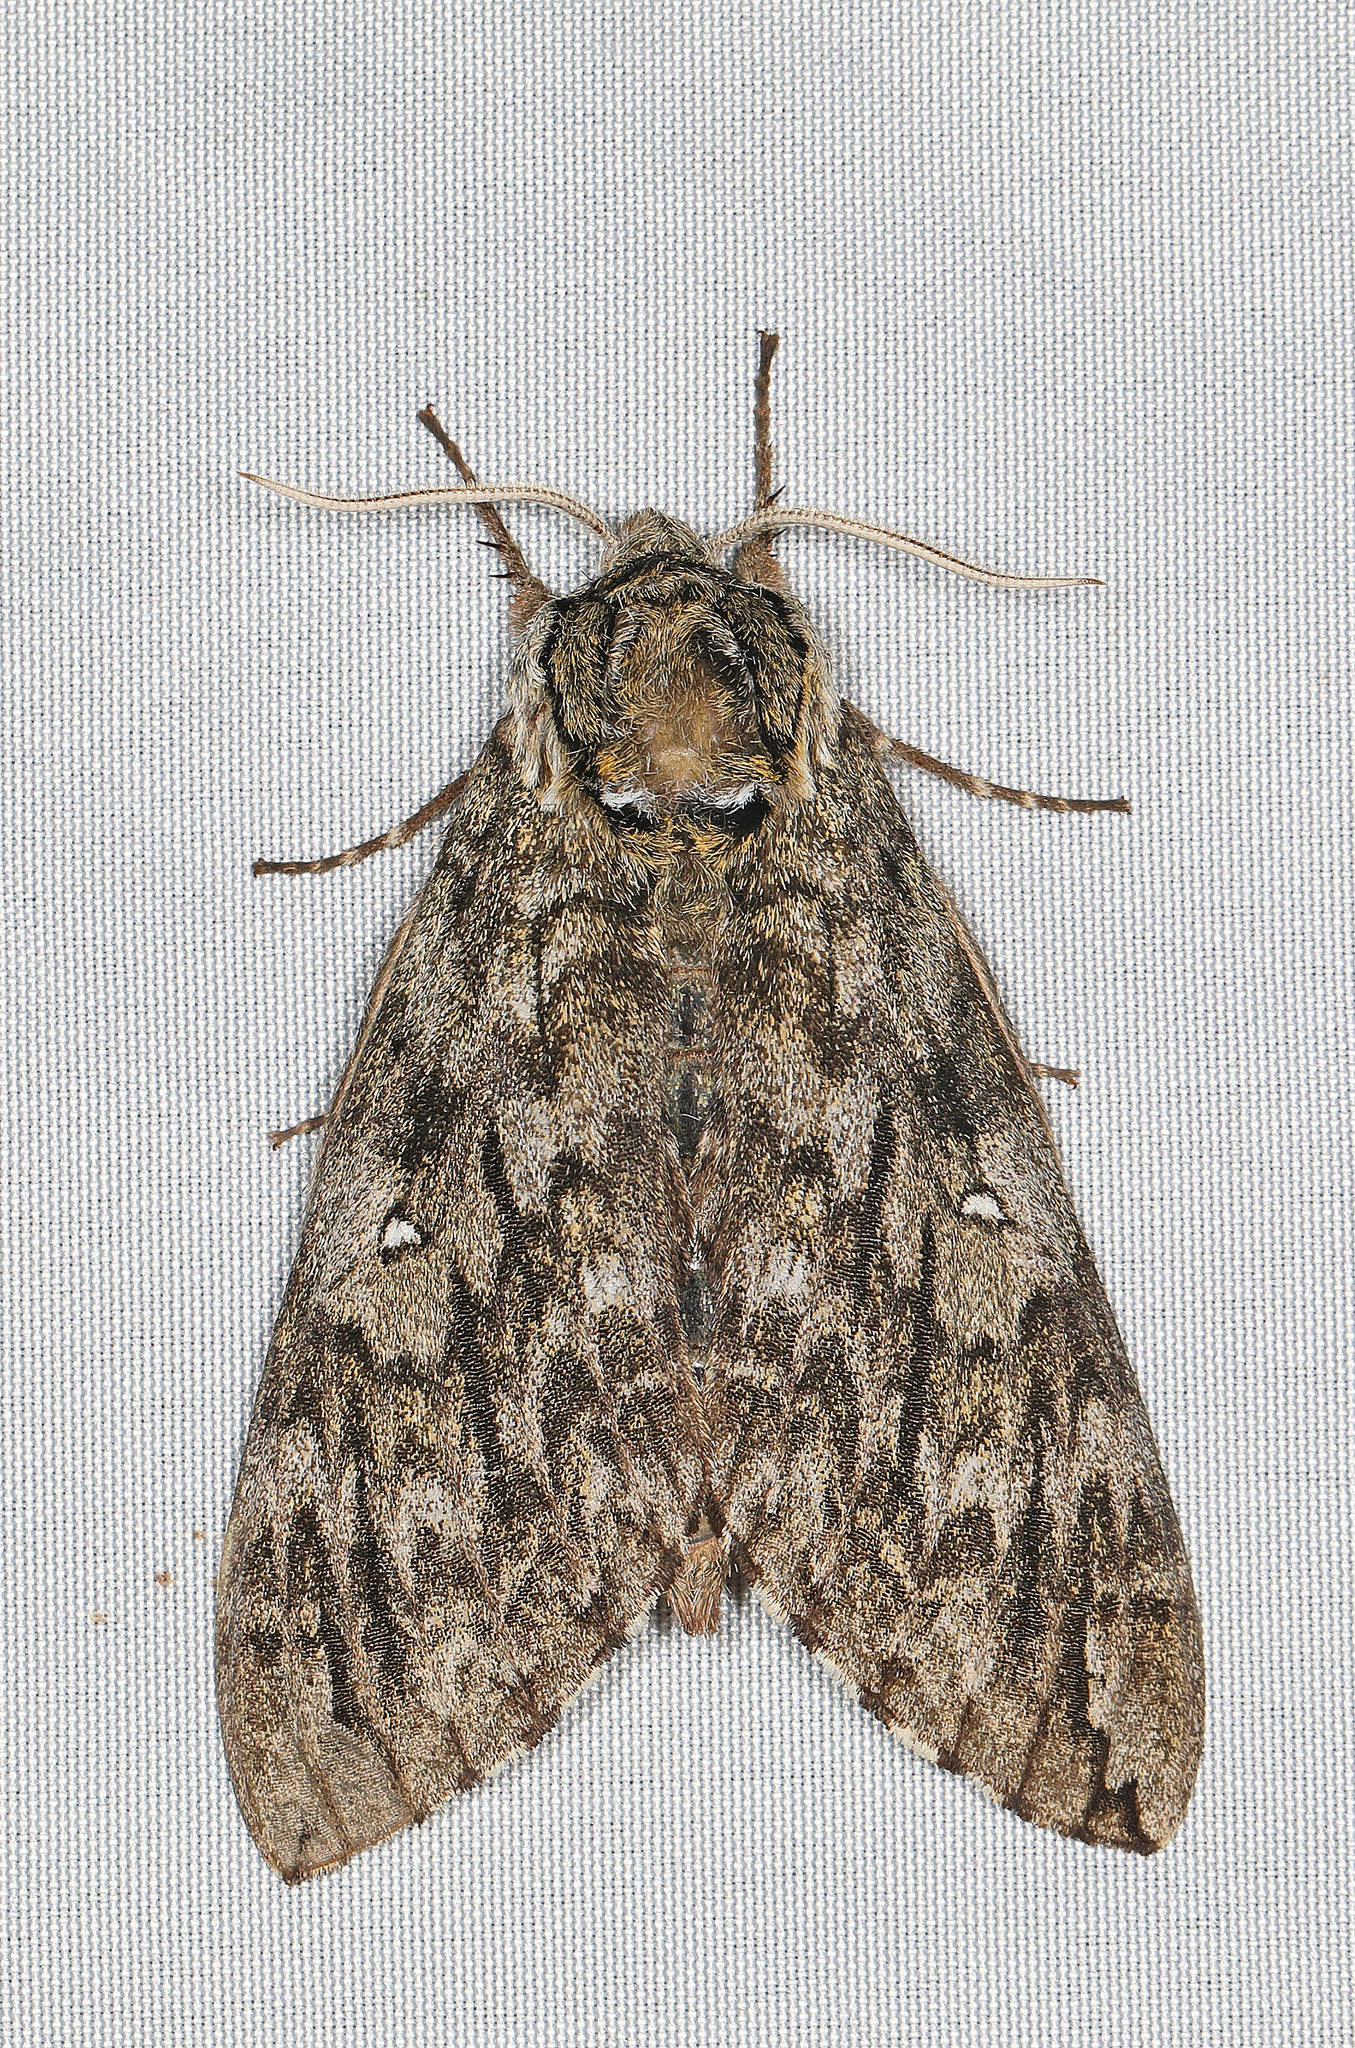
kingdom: Animalia
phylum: Arthropoda
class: Insecta
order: Lepidoptera
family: Sphingidae
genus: Ceratomia
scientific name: Ceratomia undulosa
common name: Waved sphinx
